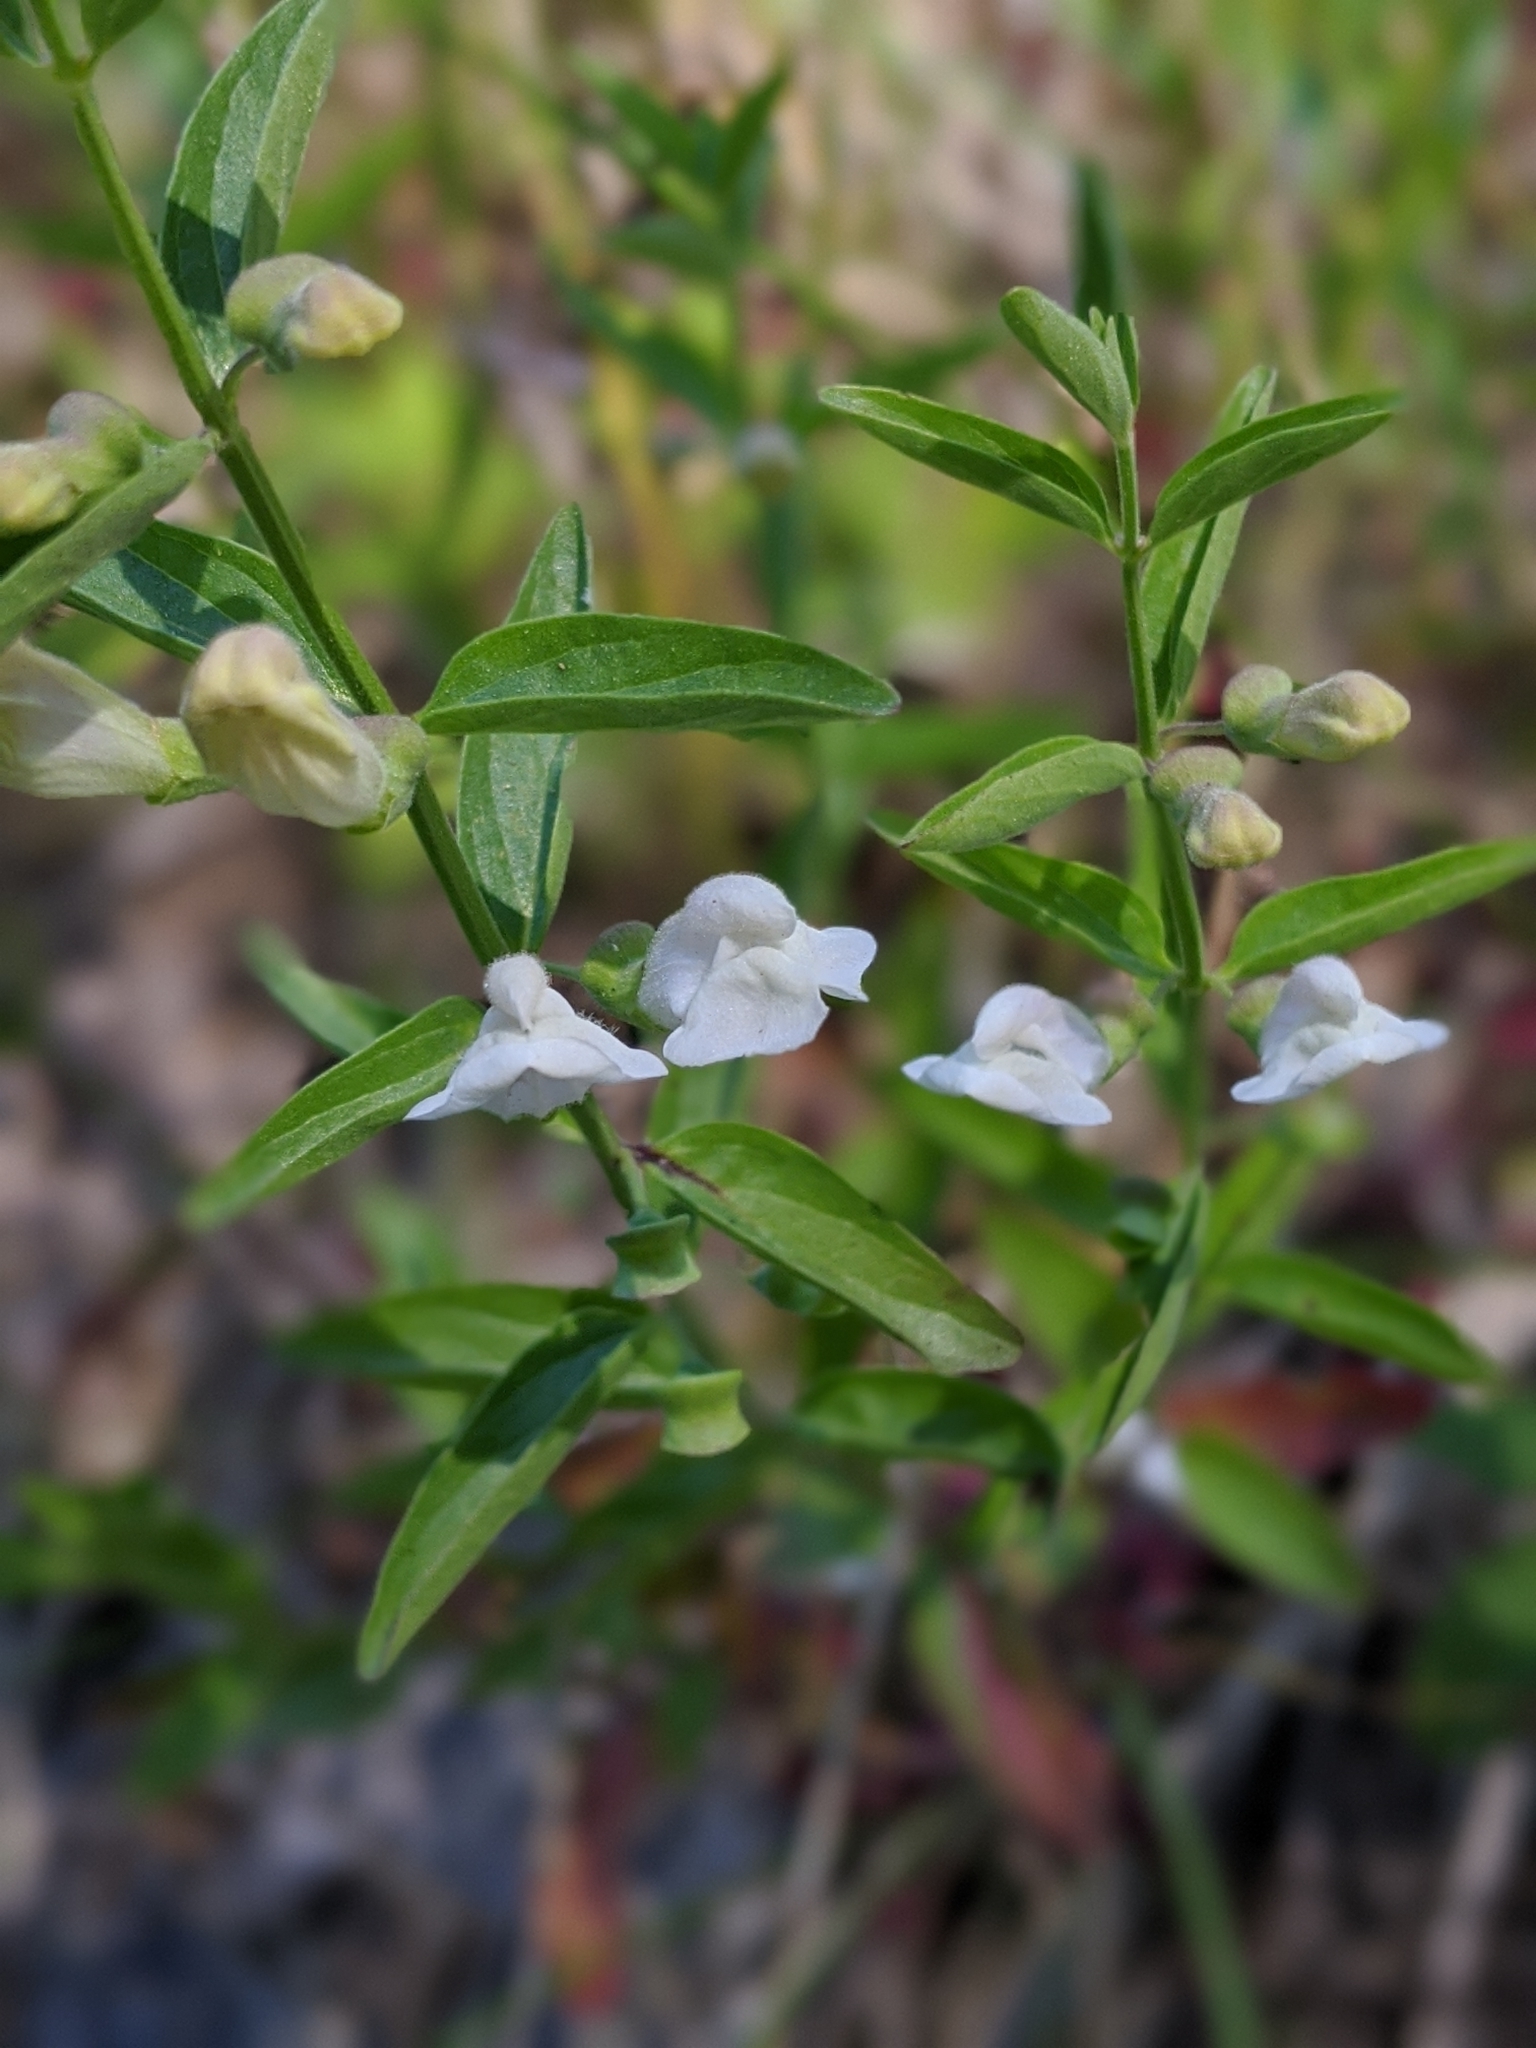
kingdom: Plantae
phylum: Tracheophyta
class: Magnoliopsida
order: Lamiales
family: Lamiaceae
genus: Scutellaria
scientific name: Scutellaria californica
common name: California scullcap
